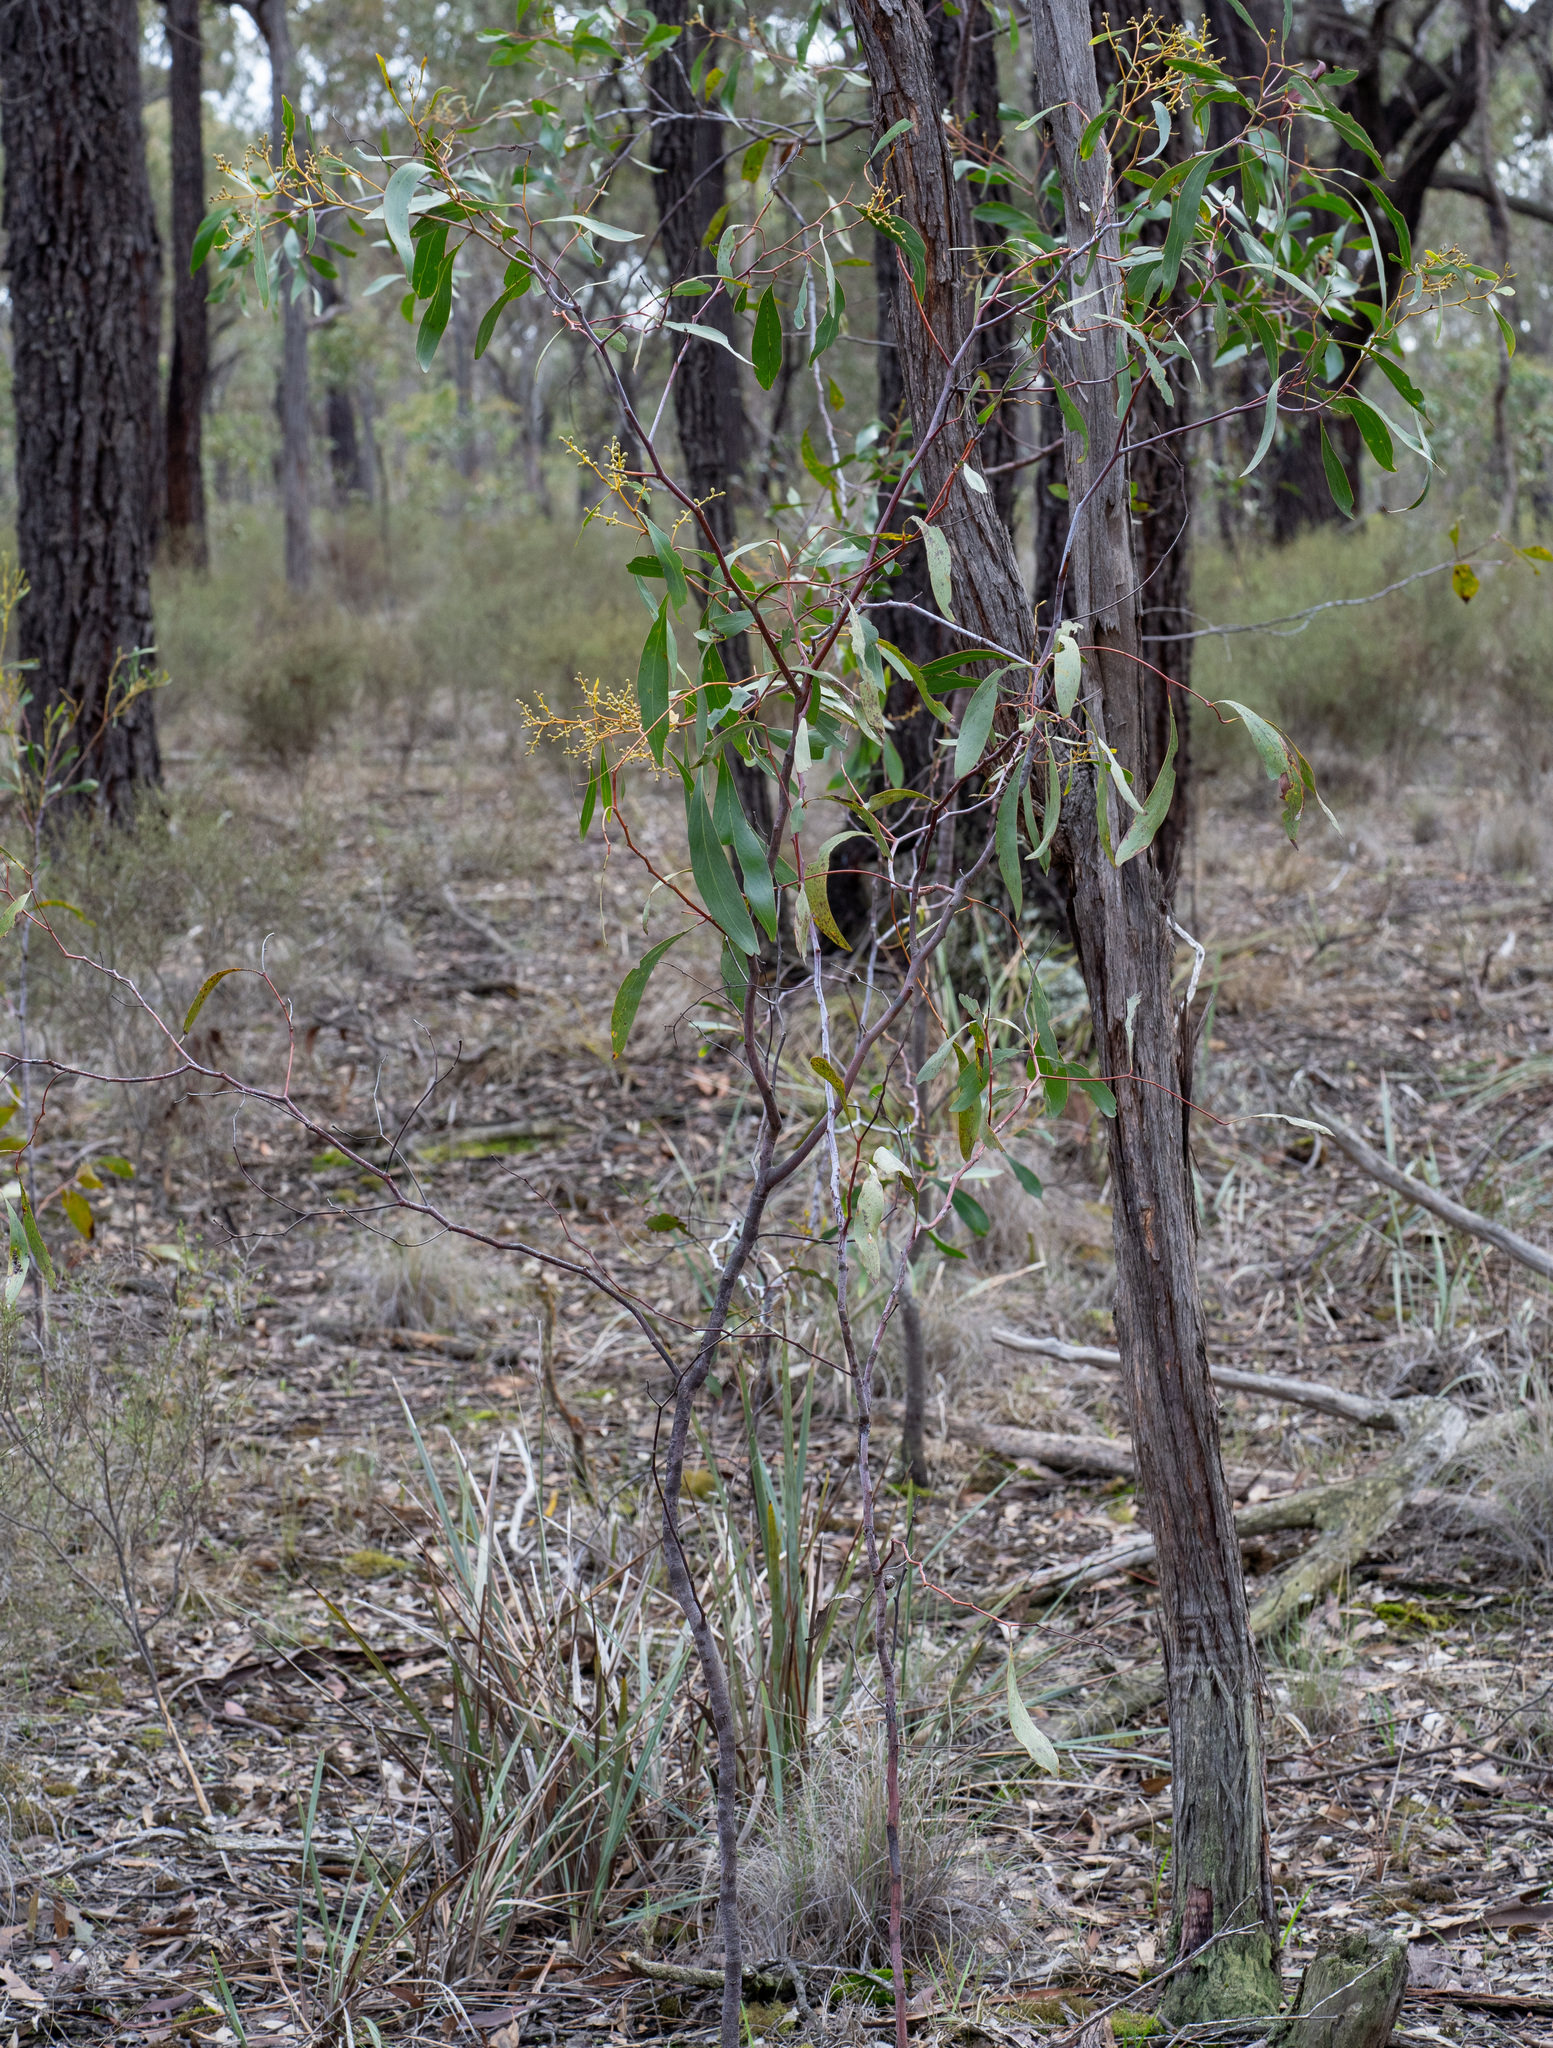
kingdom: Plantae
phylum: Tracheophyta
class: Magnoliopsida
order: Fabales
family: Fabaceae
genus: Acacia
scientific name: Acacia pycnantha
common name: Golden wattle
